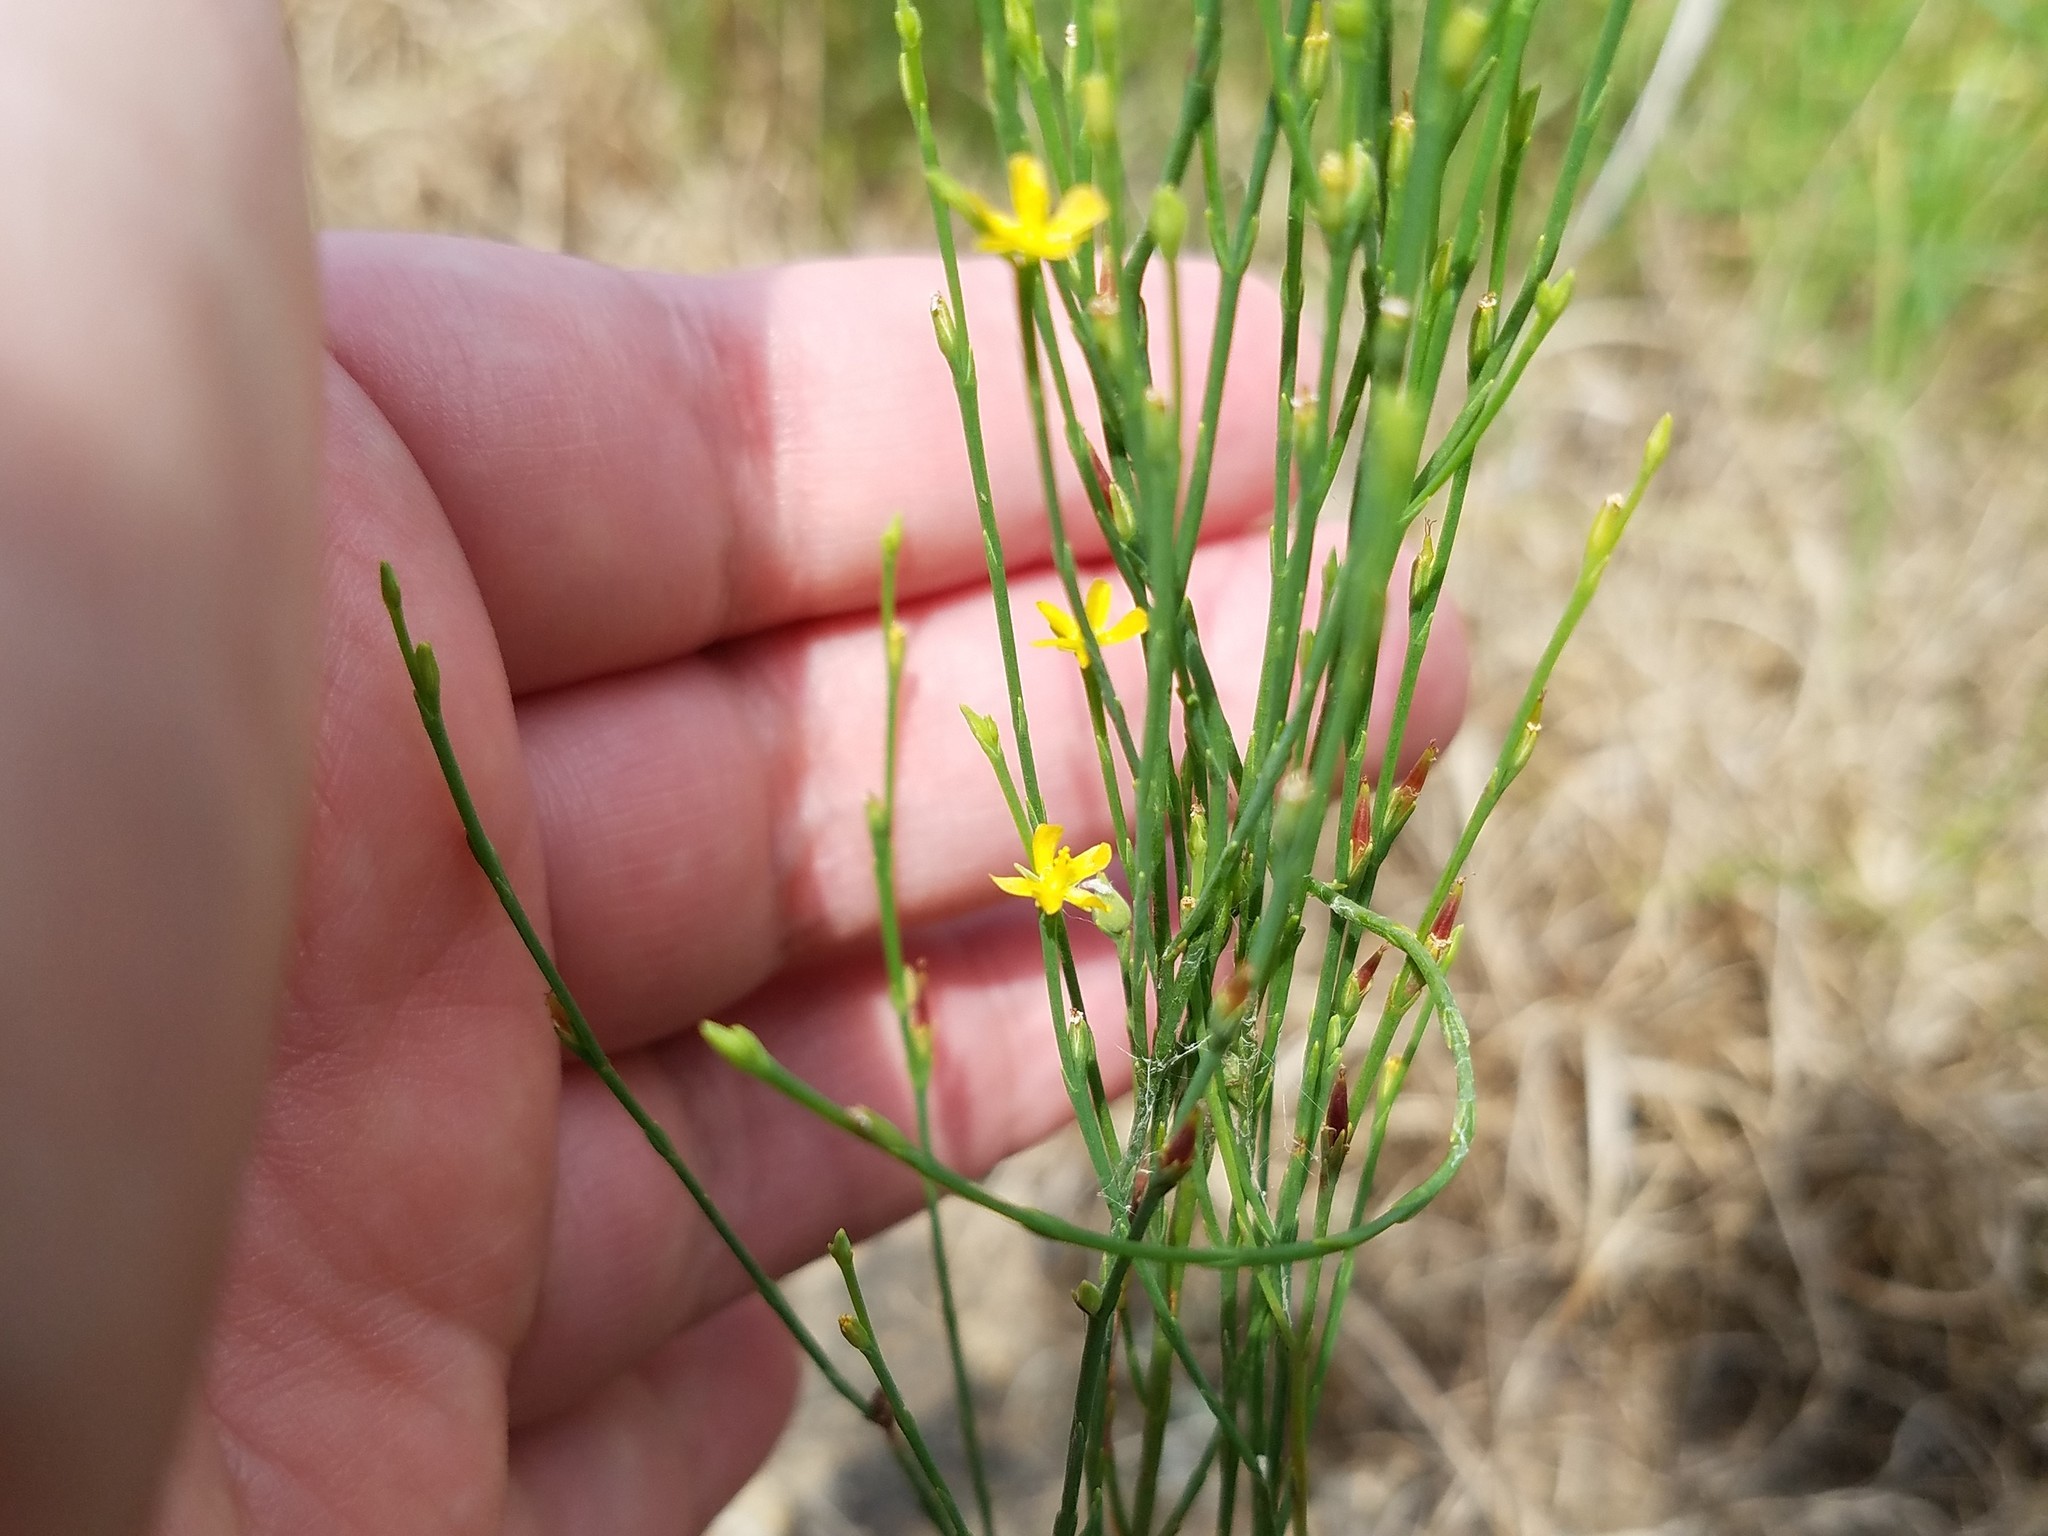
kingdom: Plantae
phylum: Tracheophyta
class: Magnoliopsida
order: Malpighiales
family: Hypericaceae
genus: Hypericum
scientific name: Hypericum gentianoides
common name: Gentian-leaved st. john's-wort
